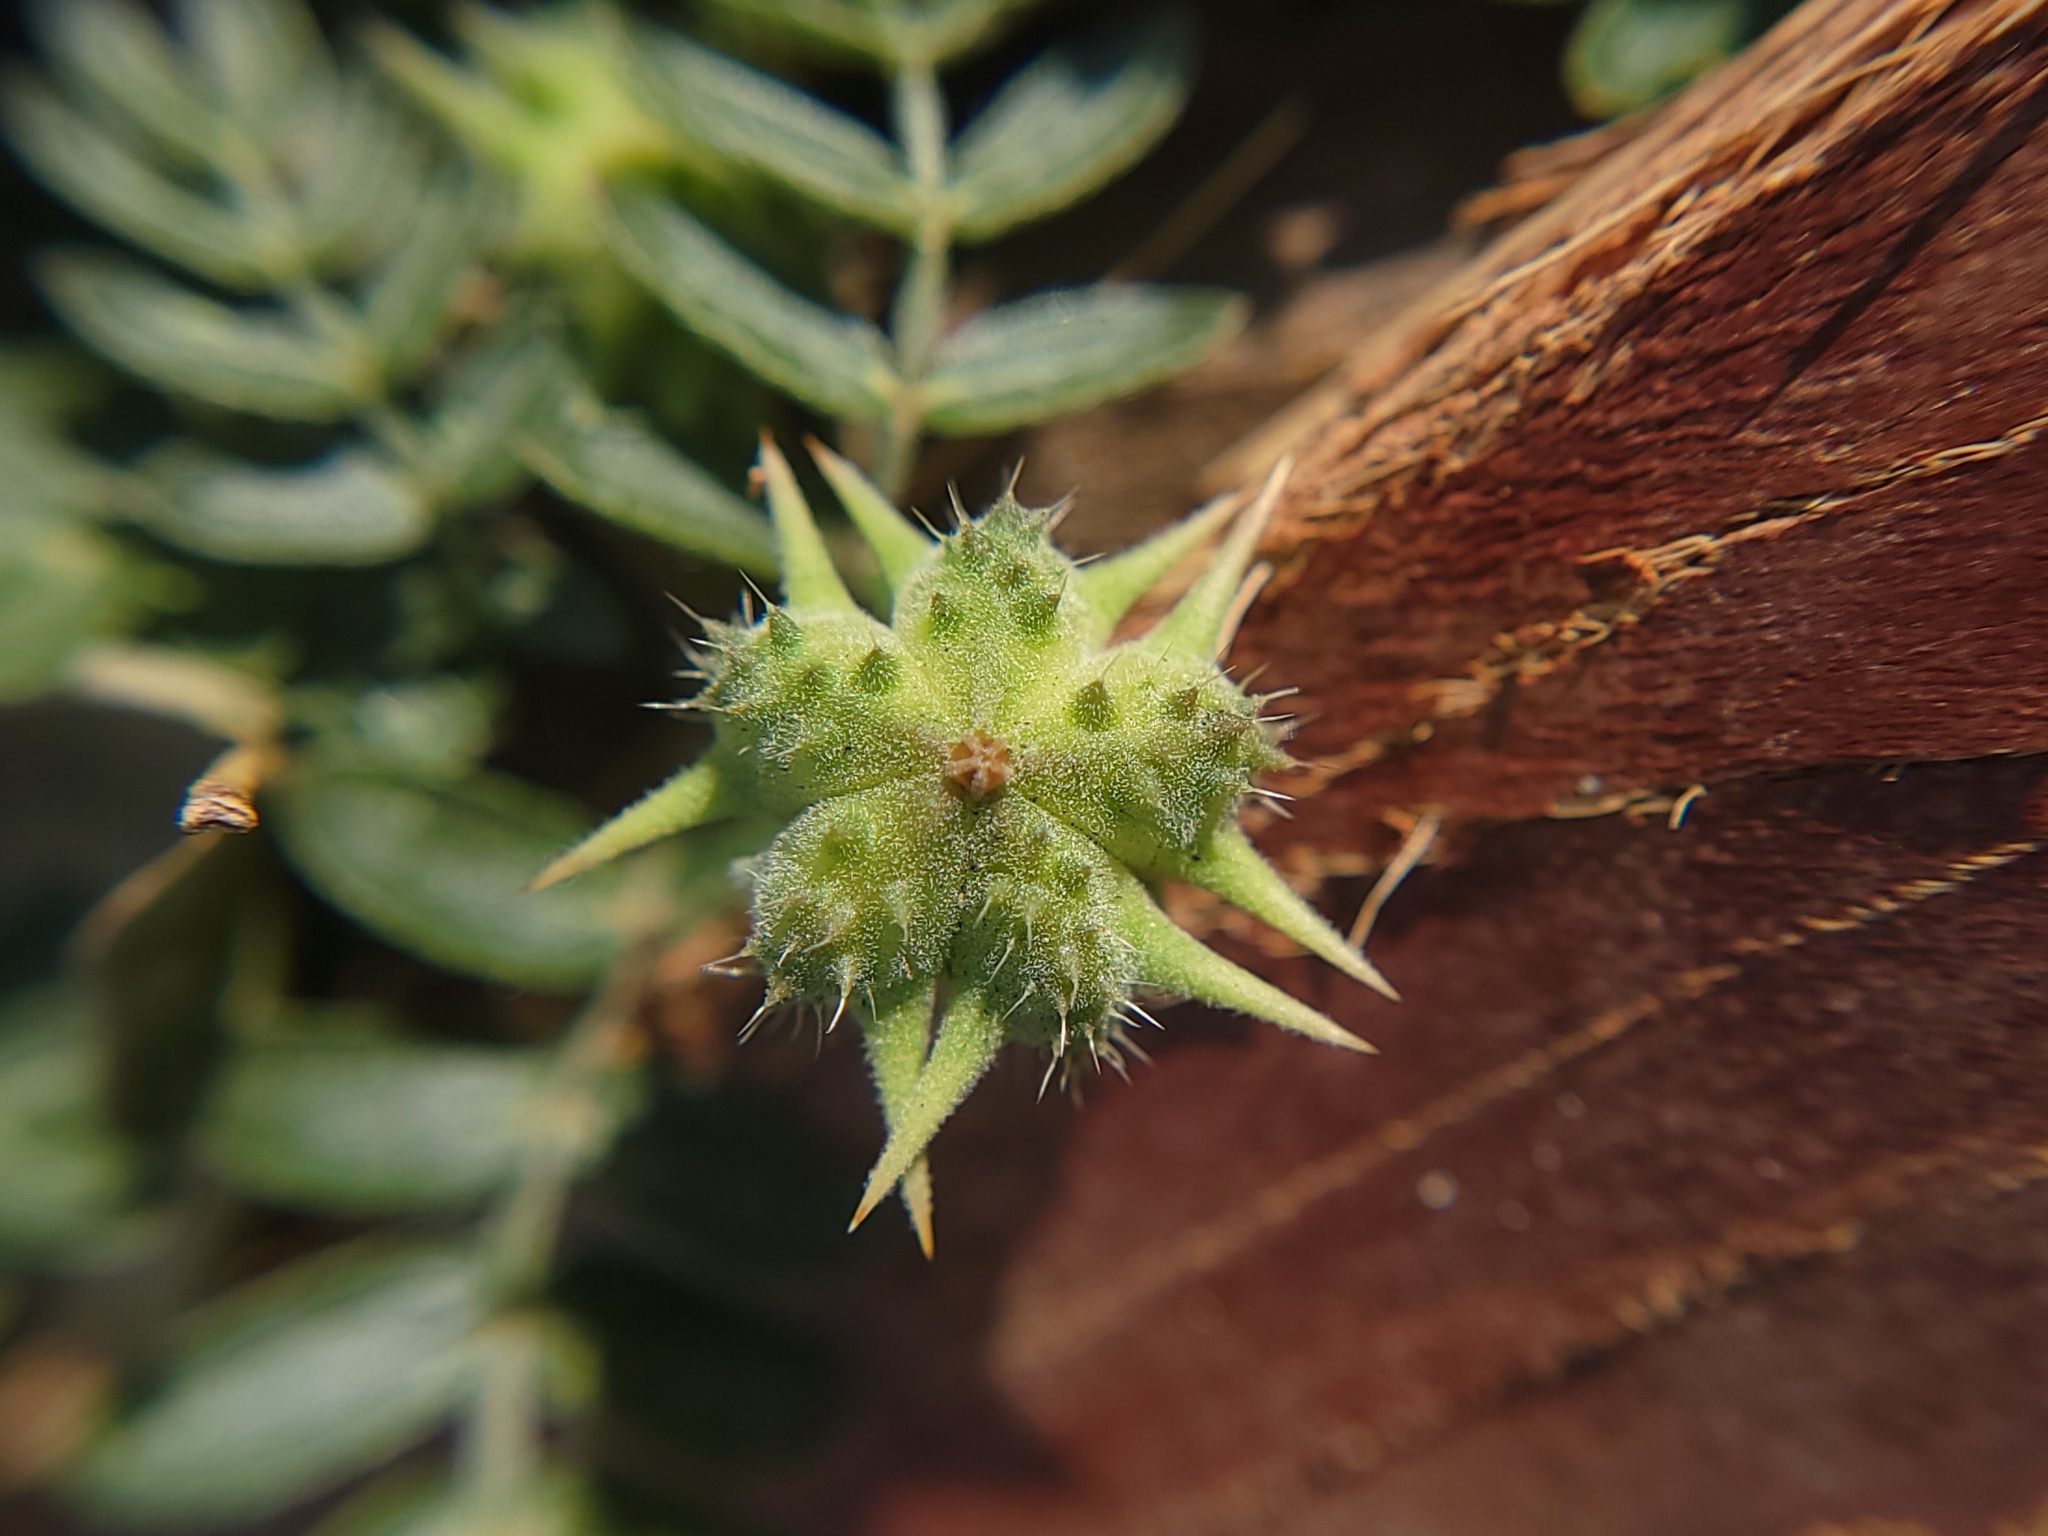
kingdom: Plantae
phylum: Tracheophyta
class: Magnoliopsida
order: Zygophyllales
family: Zygophyllaceae
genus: Tribulus
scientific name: Tribulus terrestris
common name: Puncturevine
